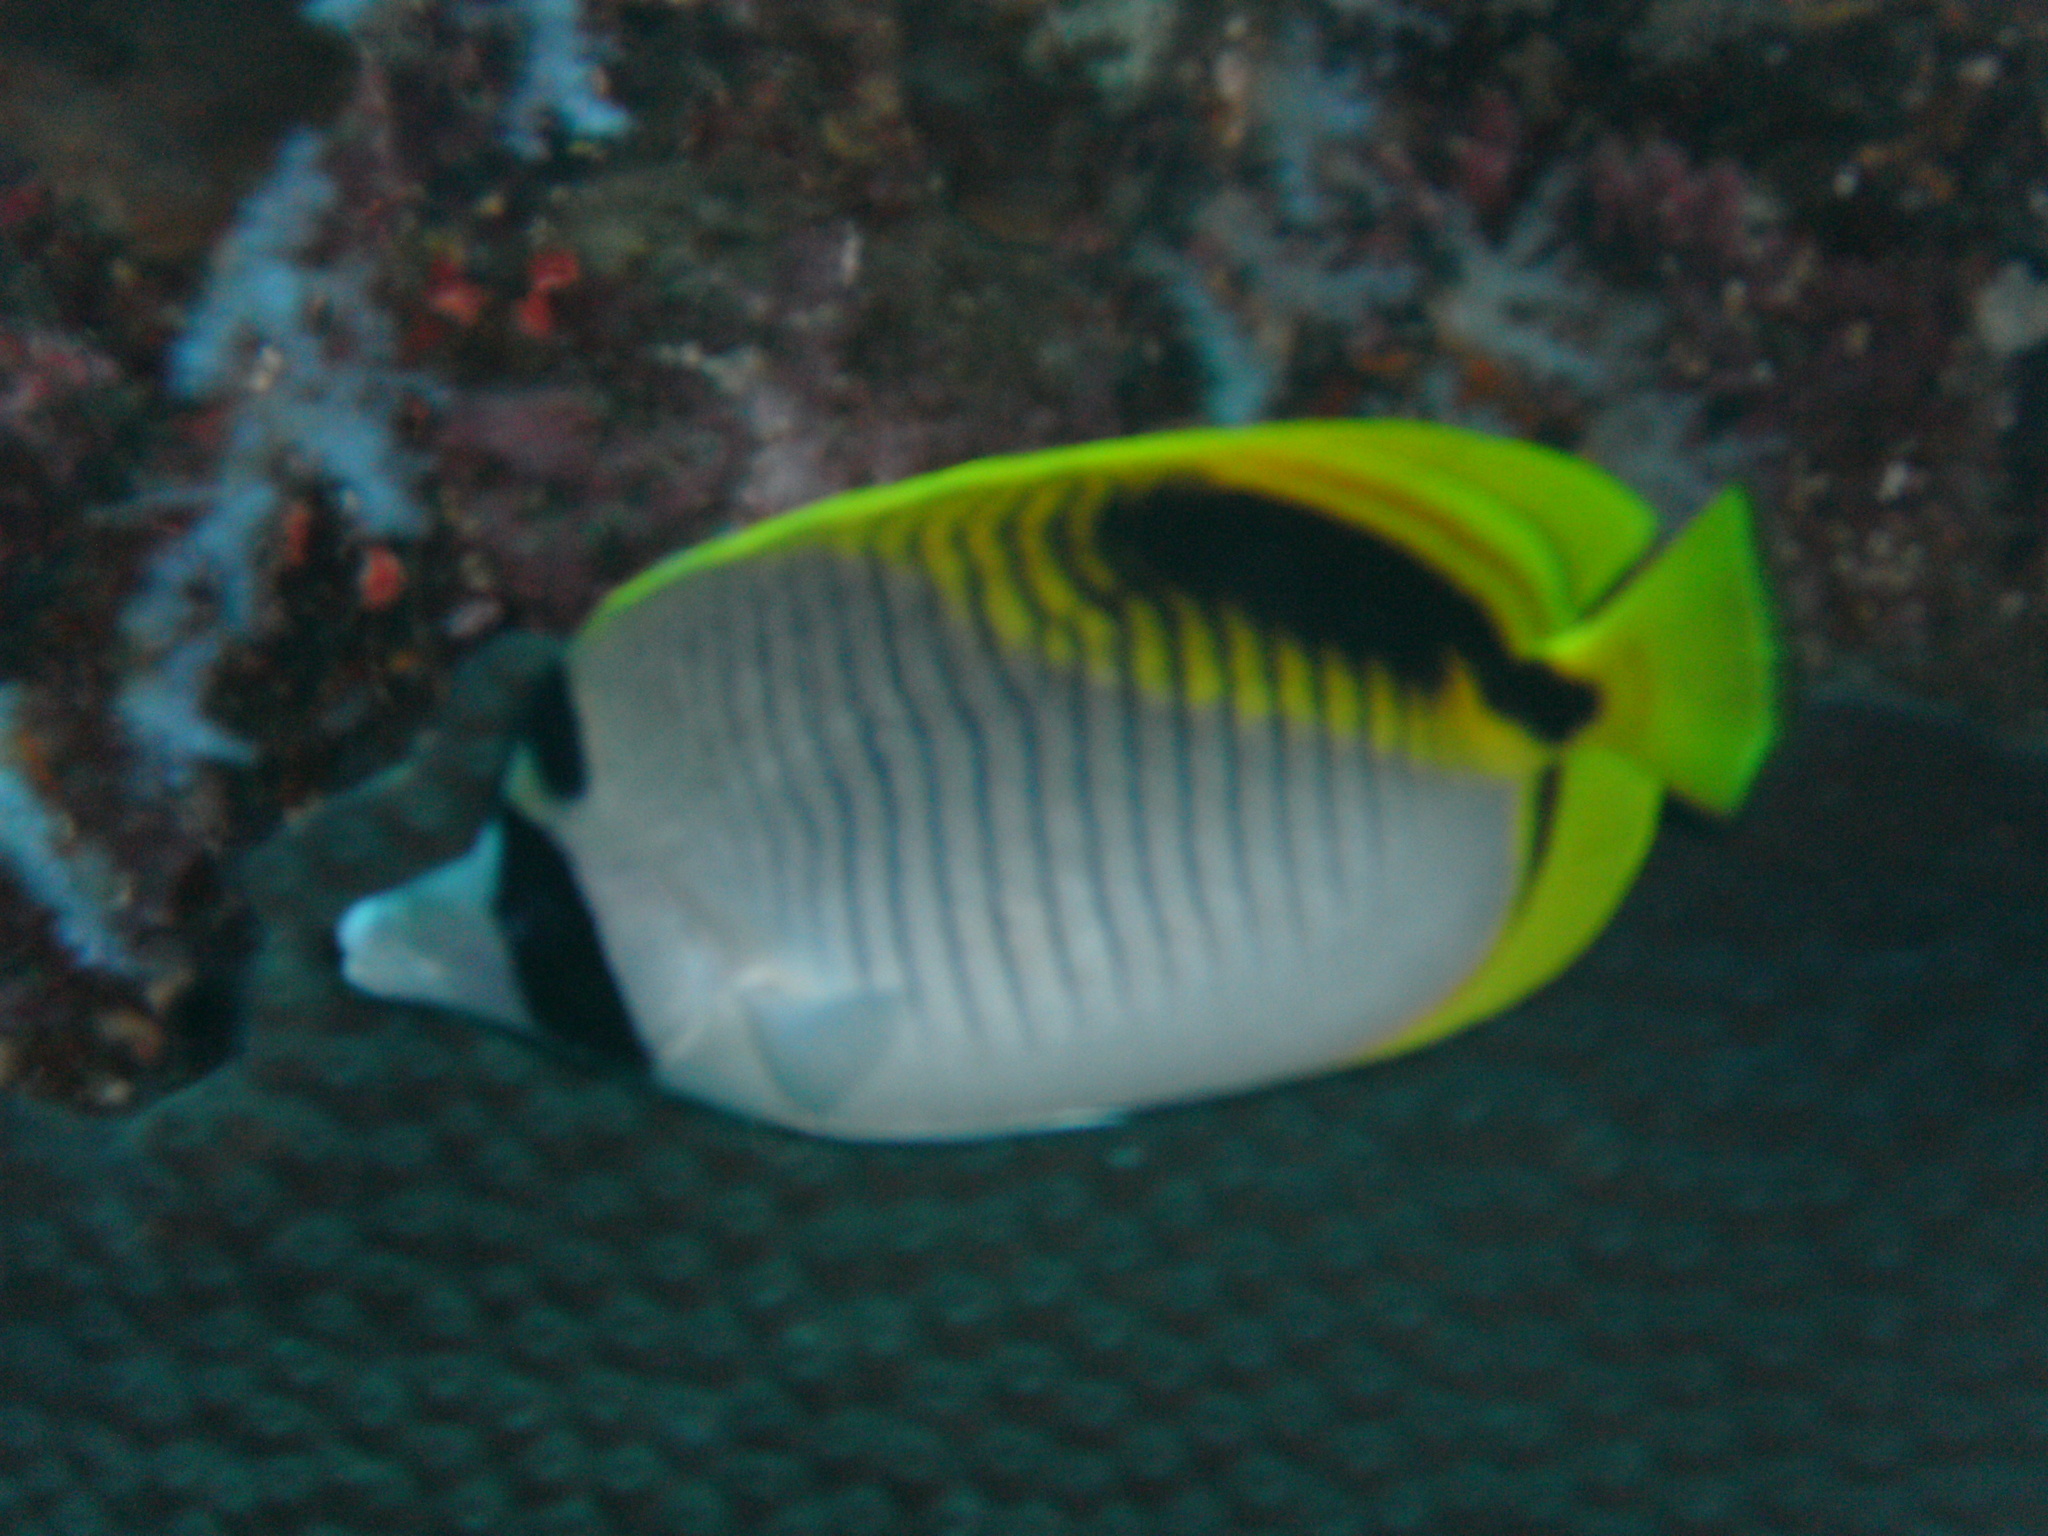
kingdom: Animalia
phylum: Chordata
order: Perciformes
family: Chaetodontidae
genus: Chaetodon
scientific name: Chaetodon oxycephalus
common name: Spot-nape butterflyfish
